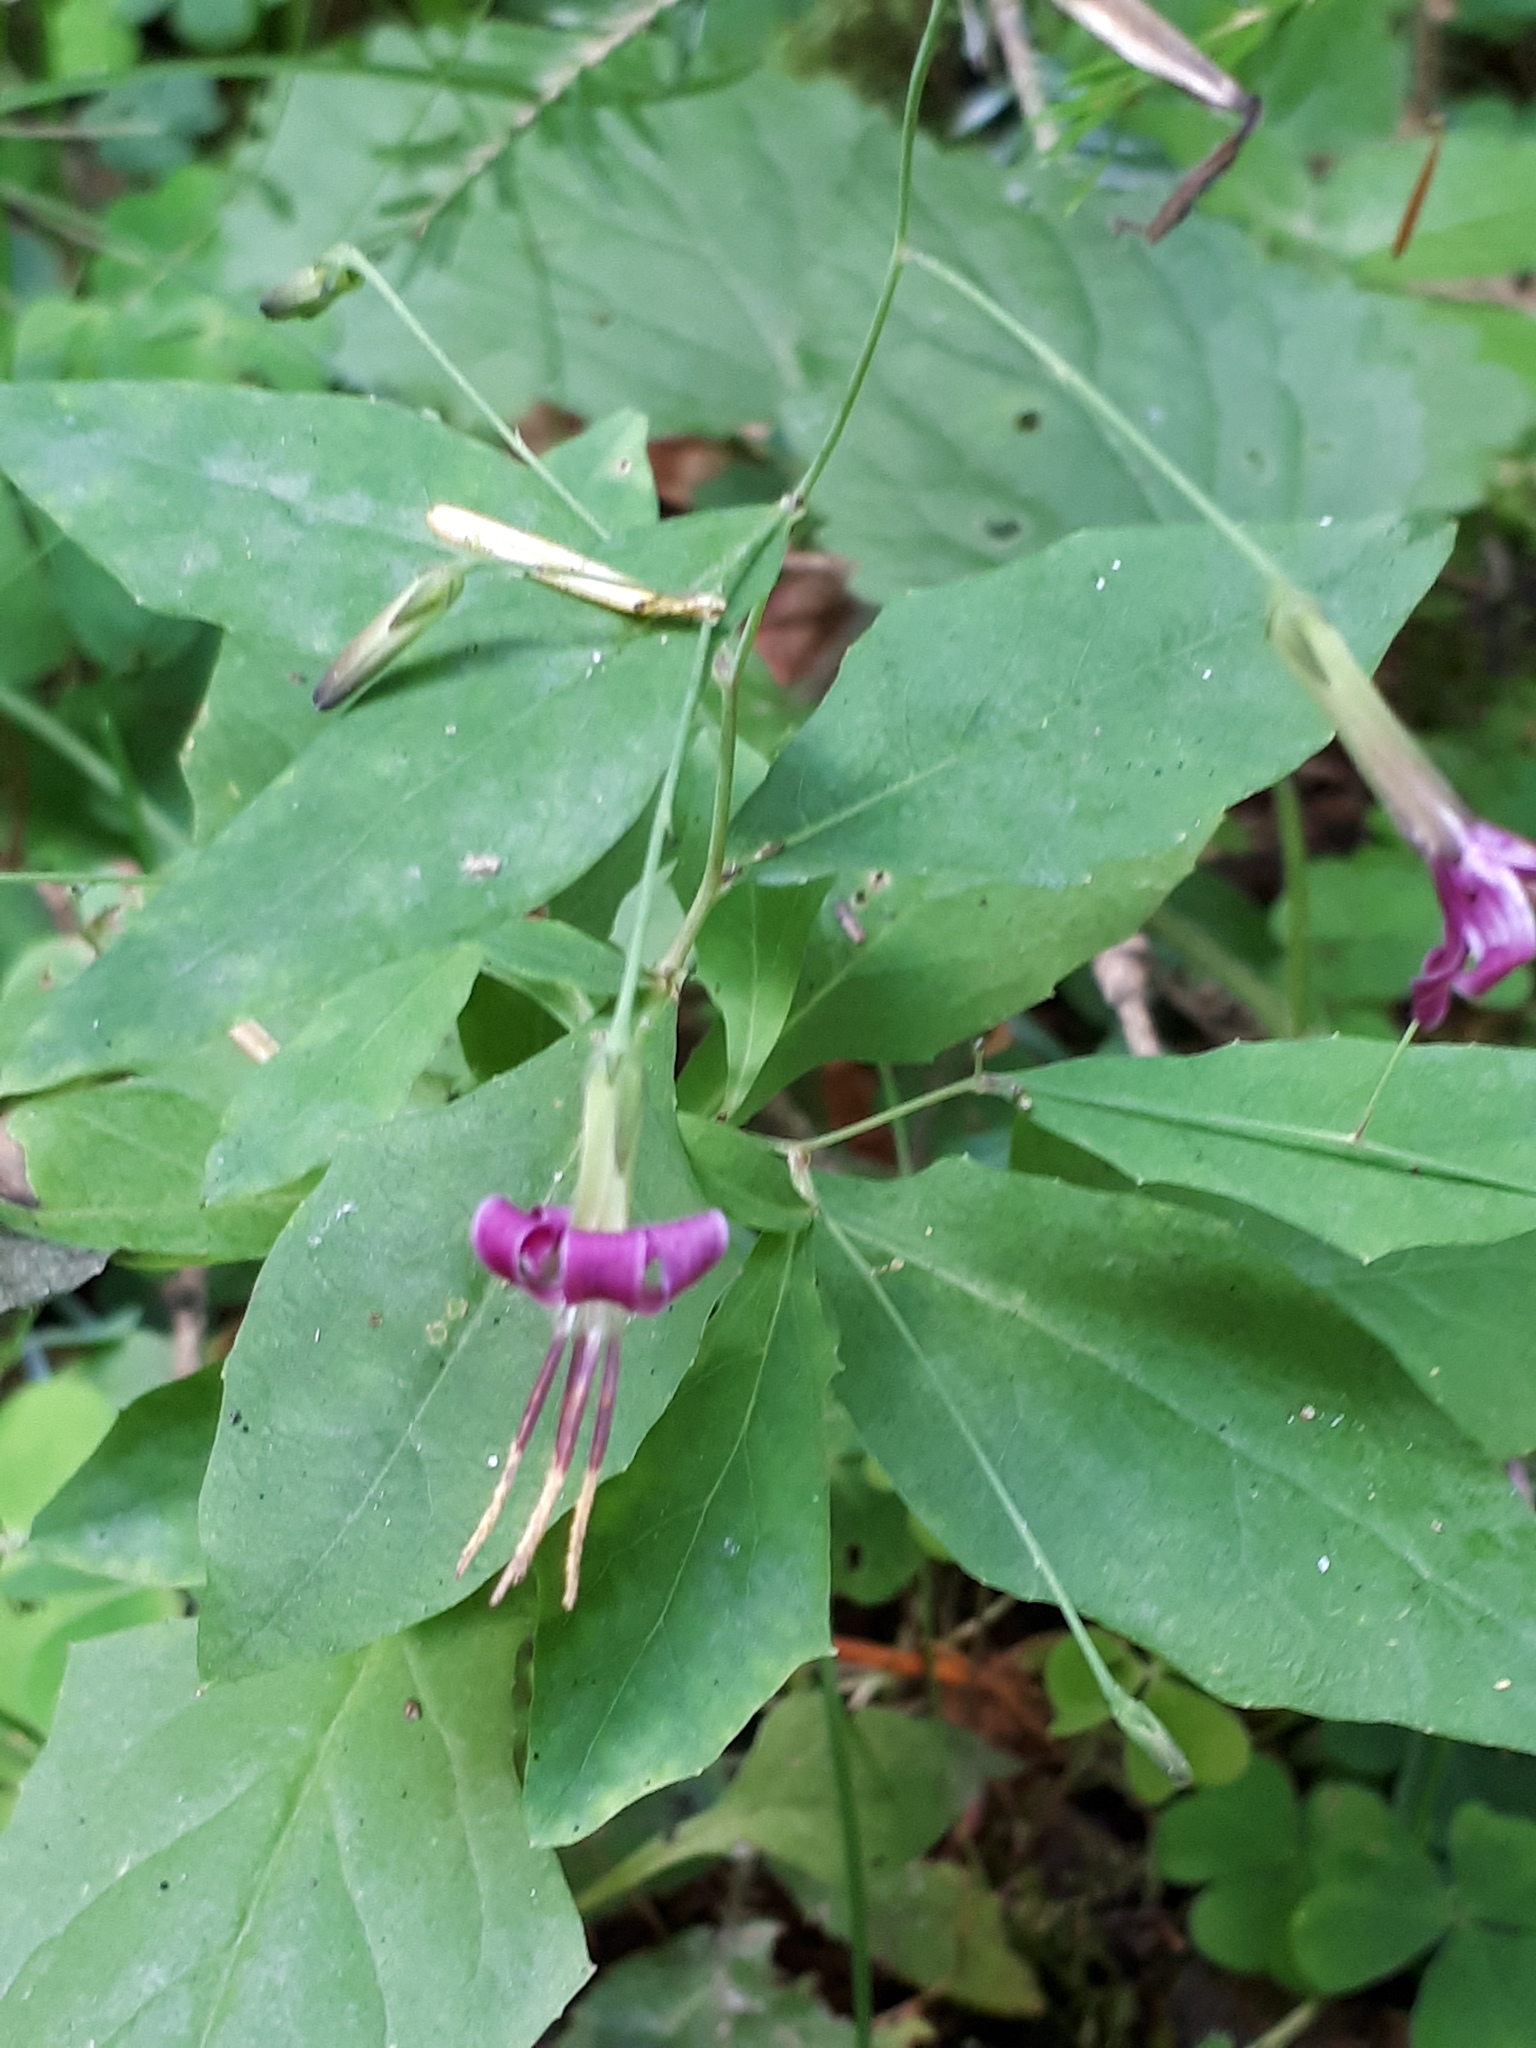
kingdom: Plantae
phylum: Tracheophyta
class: Magnoliopsida
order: Asterales
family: Asteraceae
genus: Prenanthes
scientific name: Prenanthes purpurea
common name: Purple lettuce
